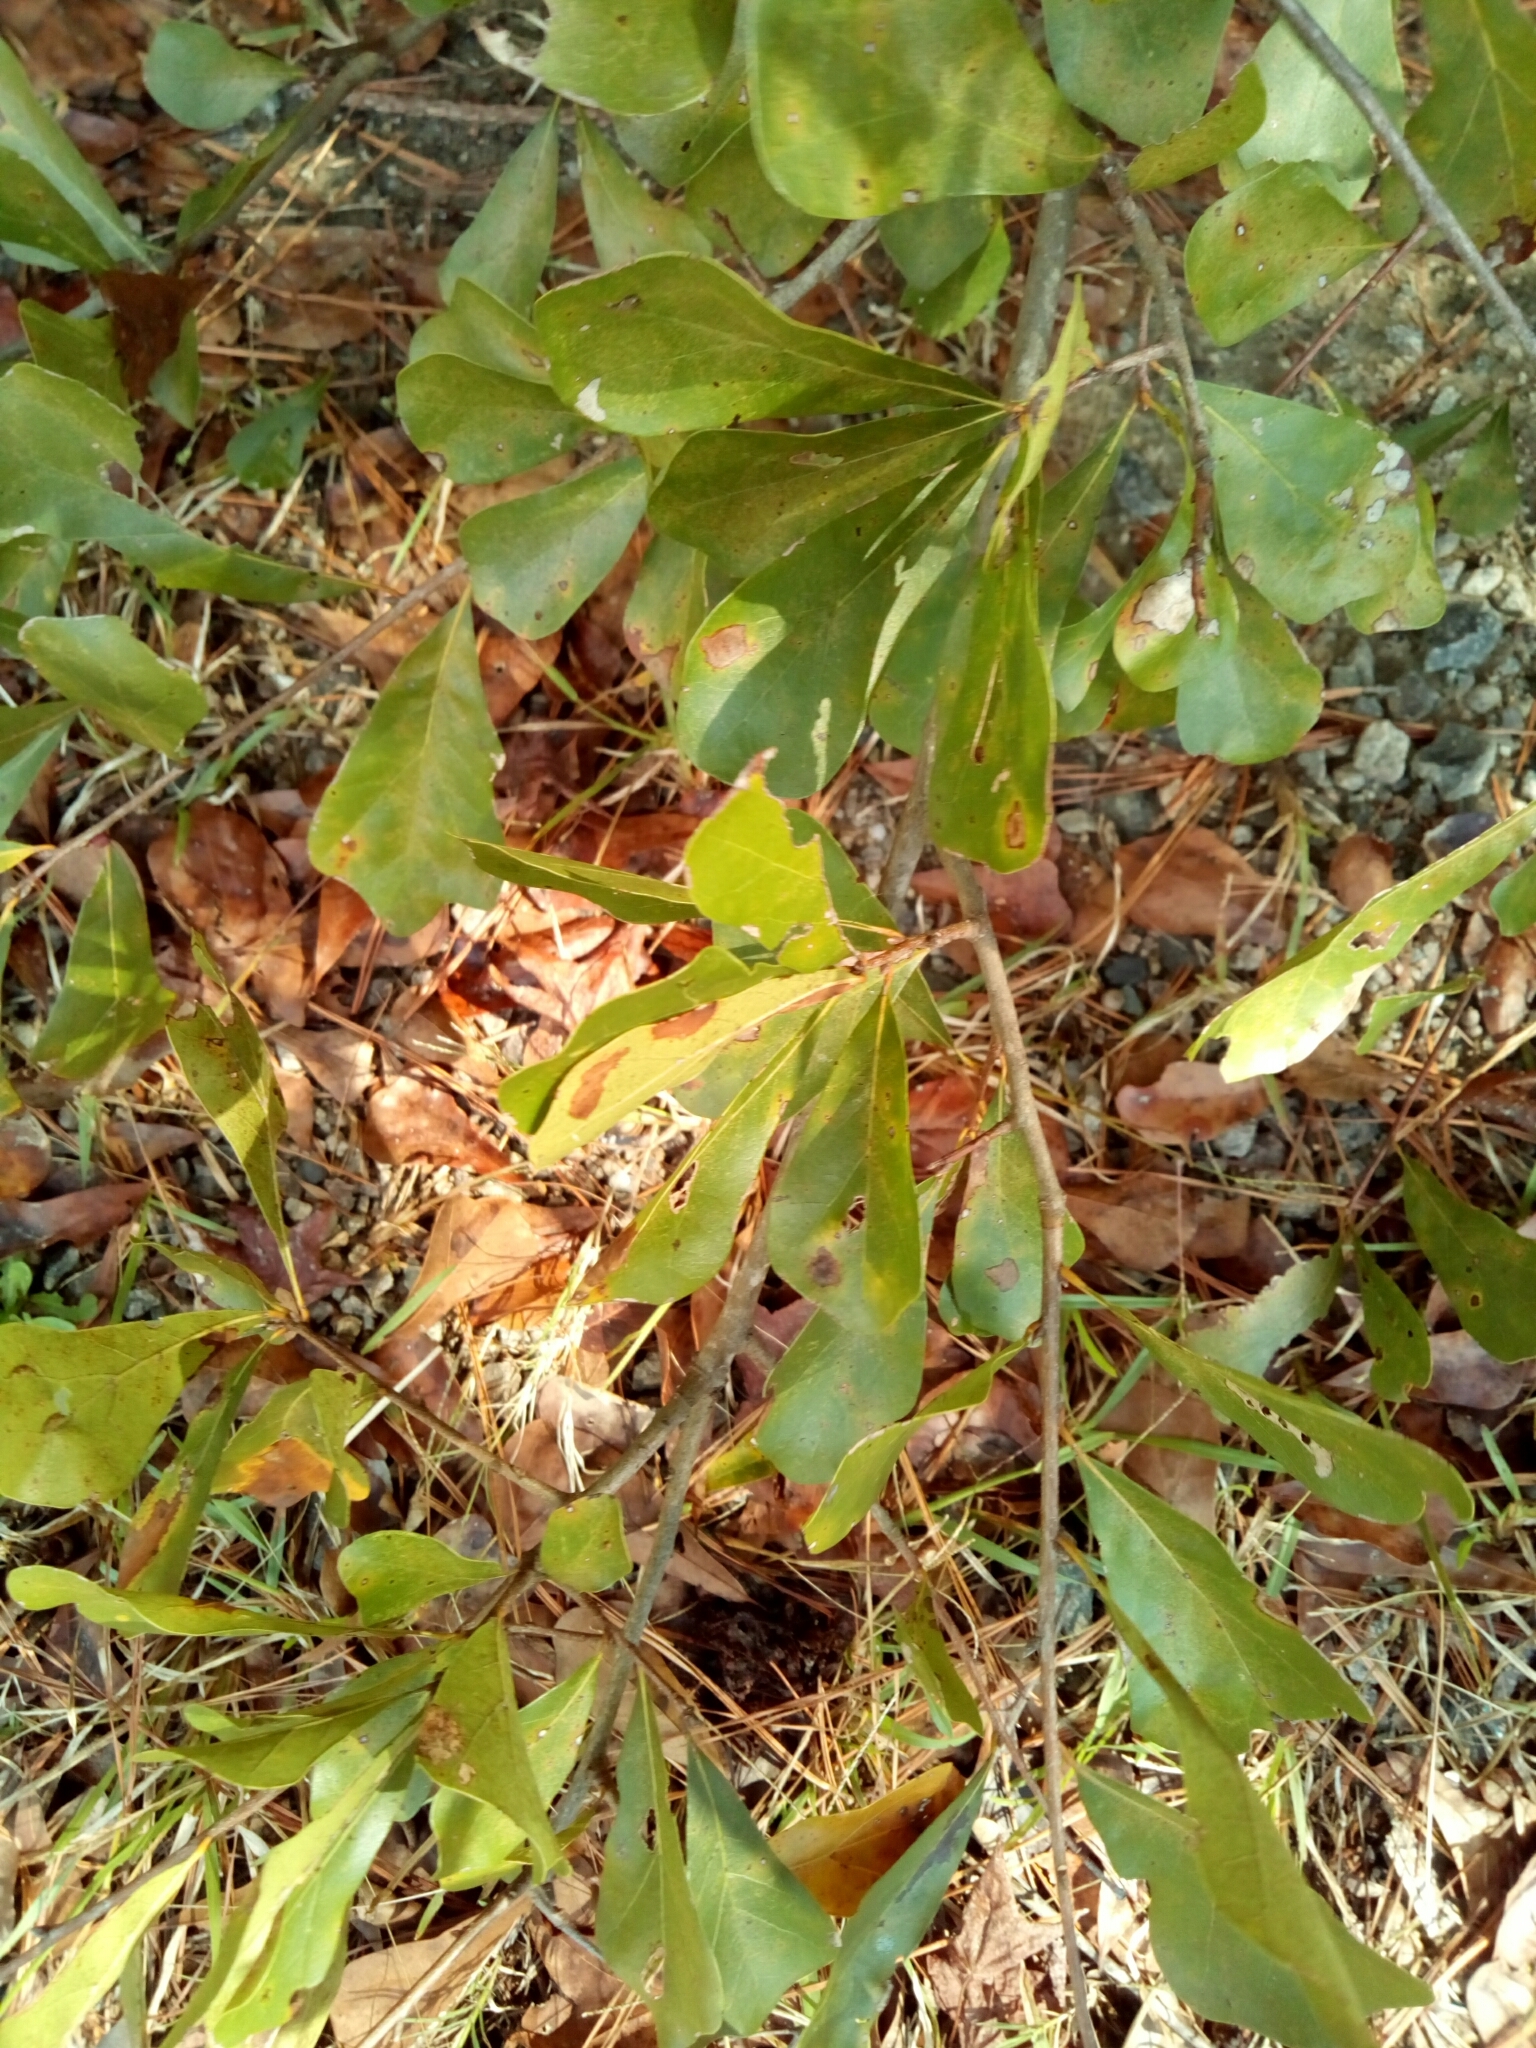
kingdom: Plantae
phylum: Tracheophyta
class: Magnoliopsida
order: Fagales
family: Fagaceae
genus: Quercus
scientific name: Quercus nigra
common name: Water oak
